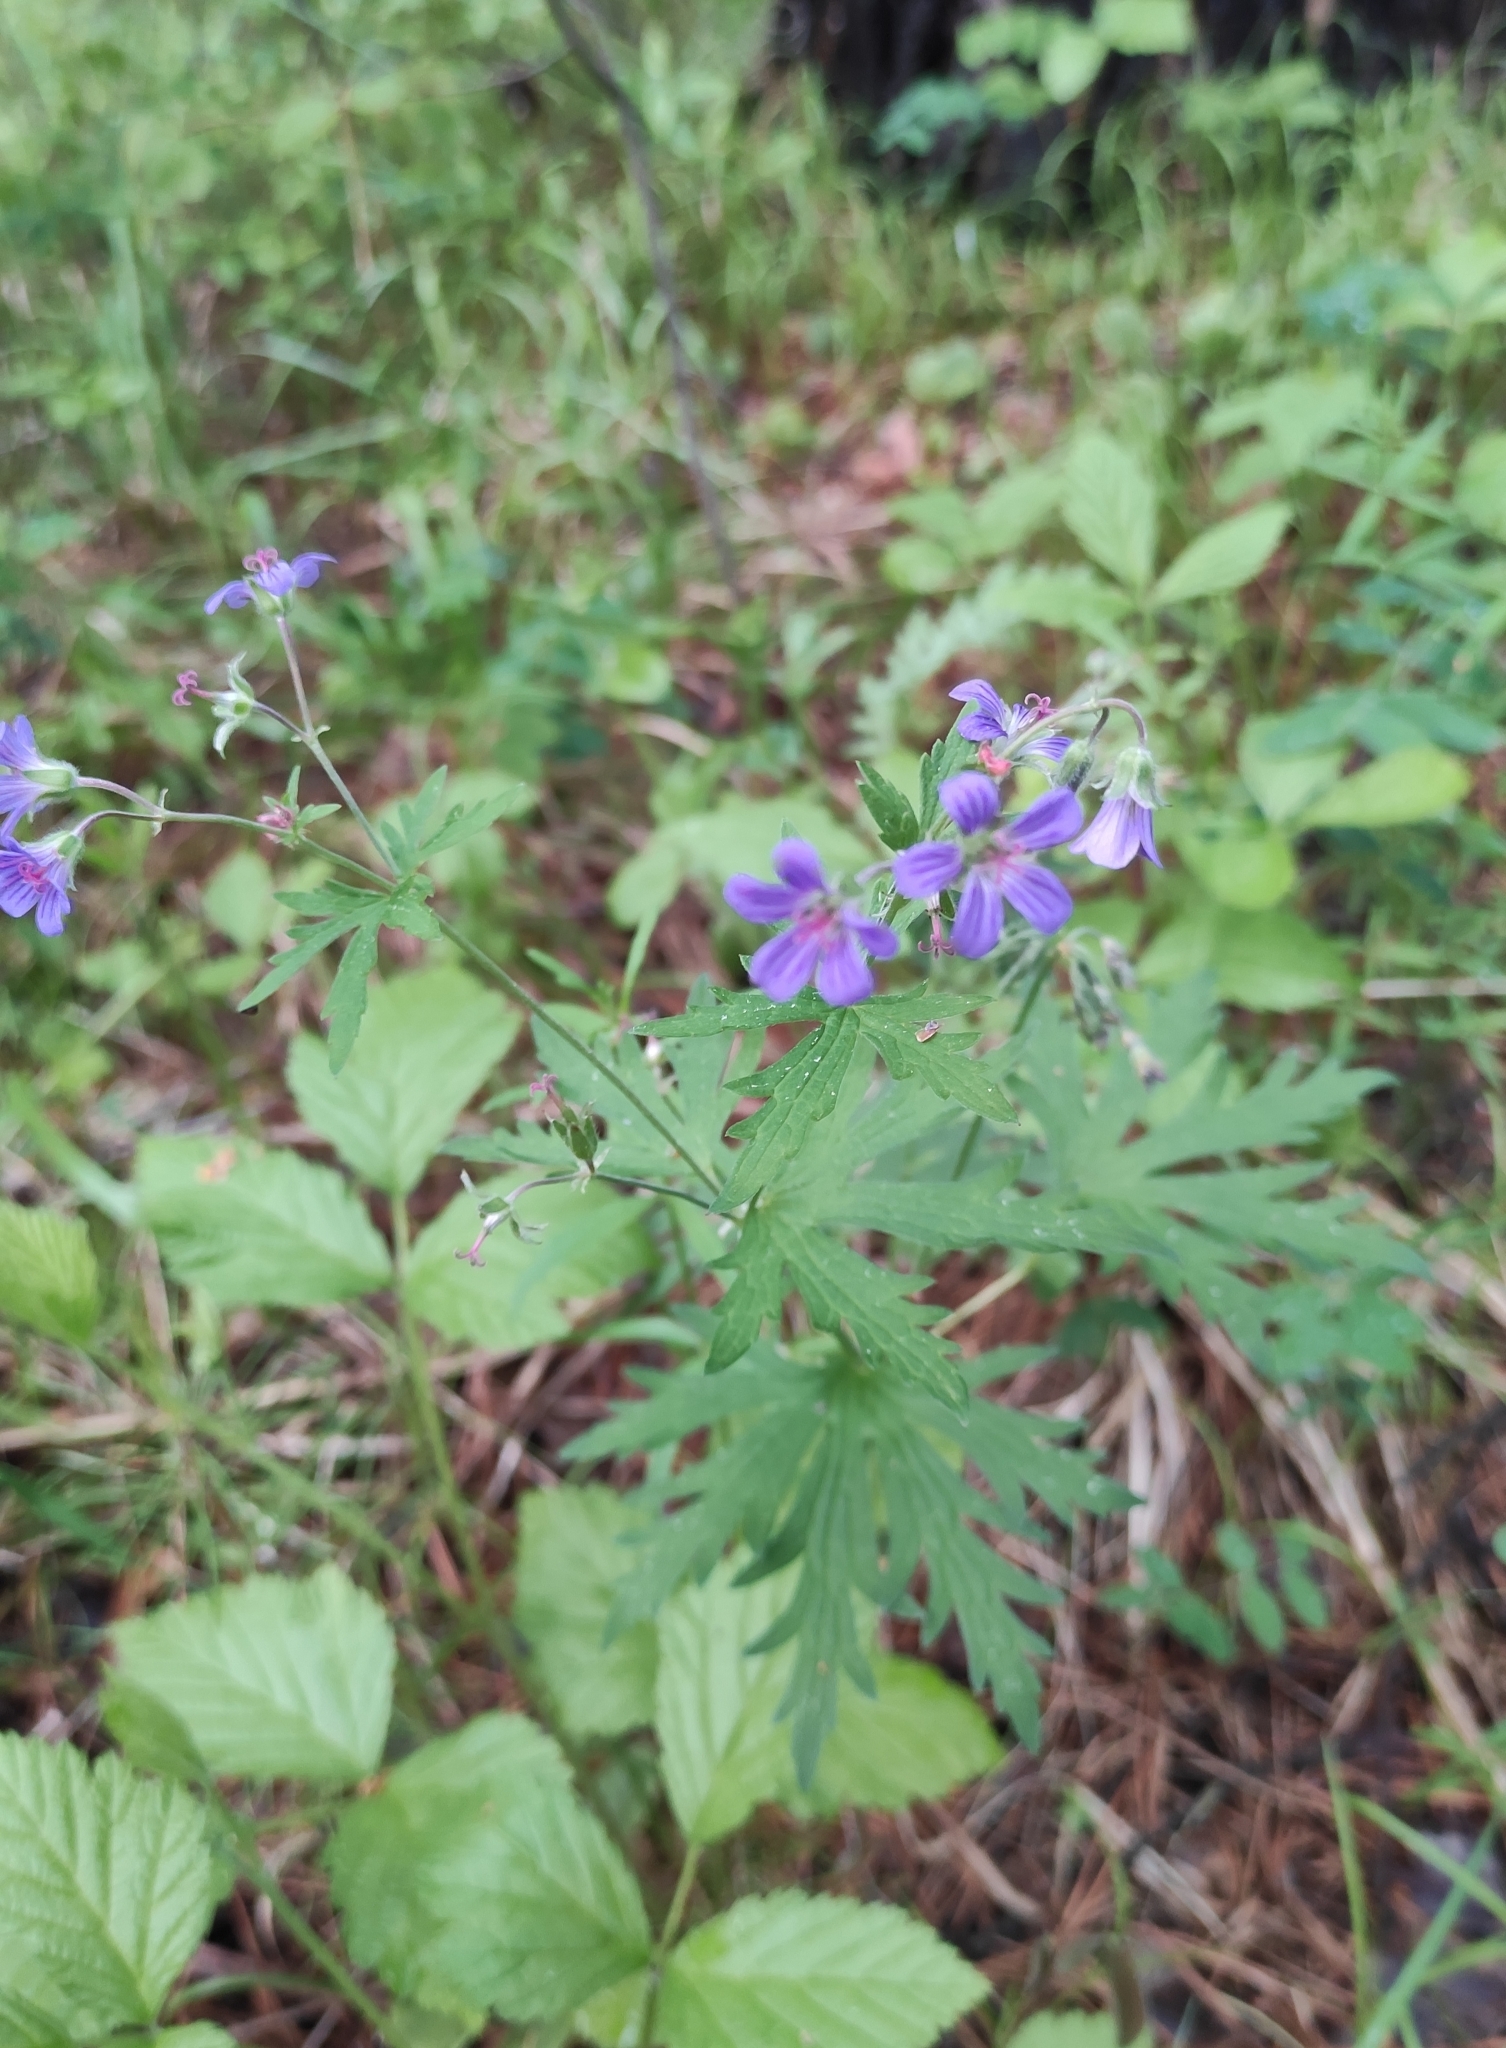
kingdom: Plantae
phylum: Tracheophyta
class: Magnoliopsida
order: Geraniales
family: Geraniaceae
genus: Geranium
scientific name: Geranium pseudosibiricum
